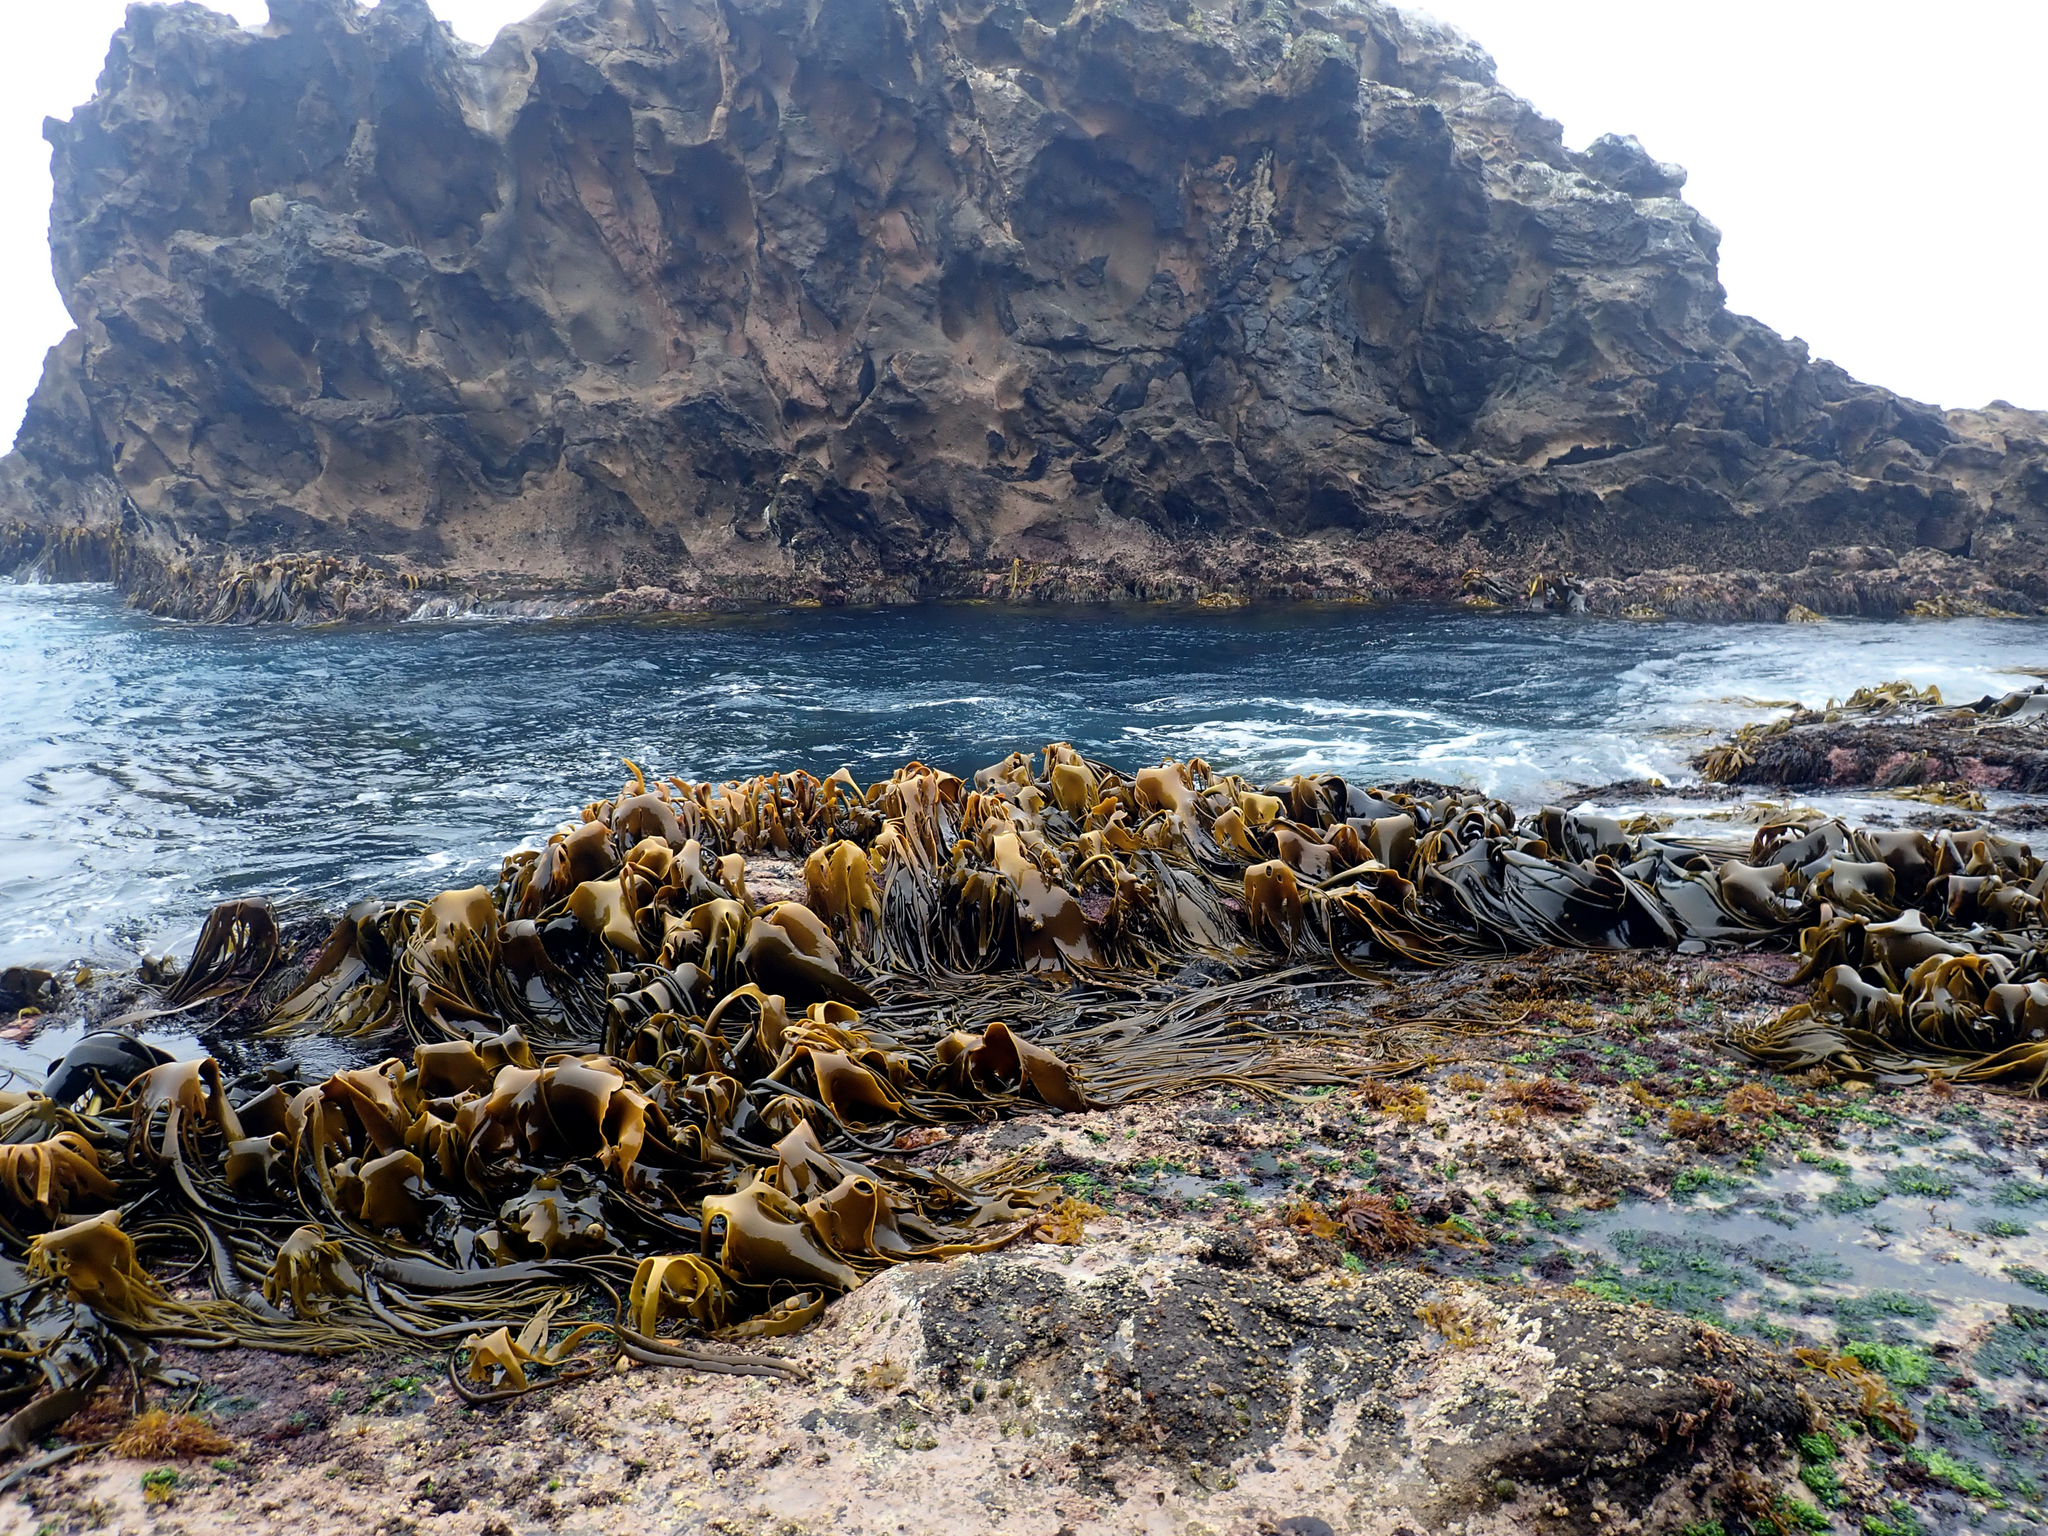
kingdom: Chromista
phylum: Ochrophyta
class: Phaeophyceae
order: Fucales
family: Durvillaeaceae
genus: Durvillaea
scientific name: Durvillaea antarctica
